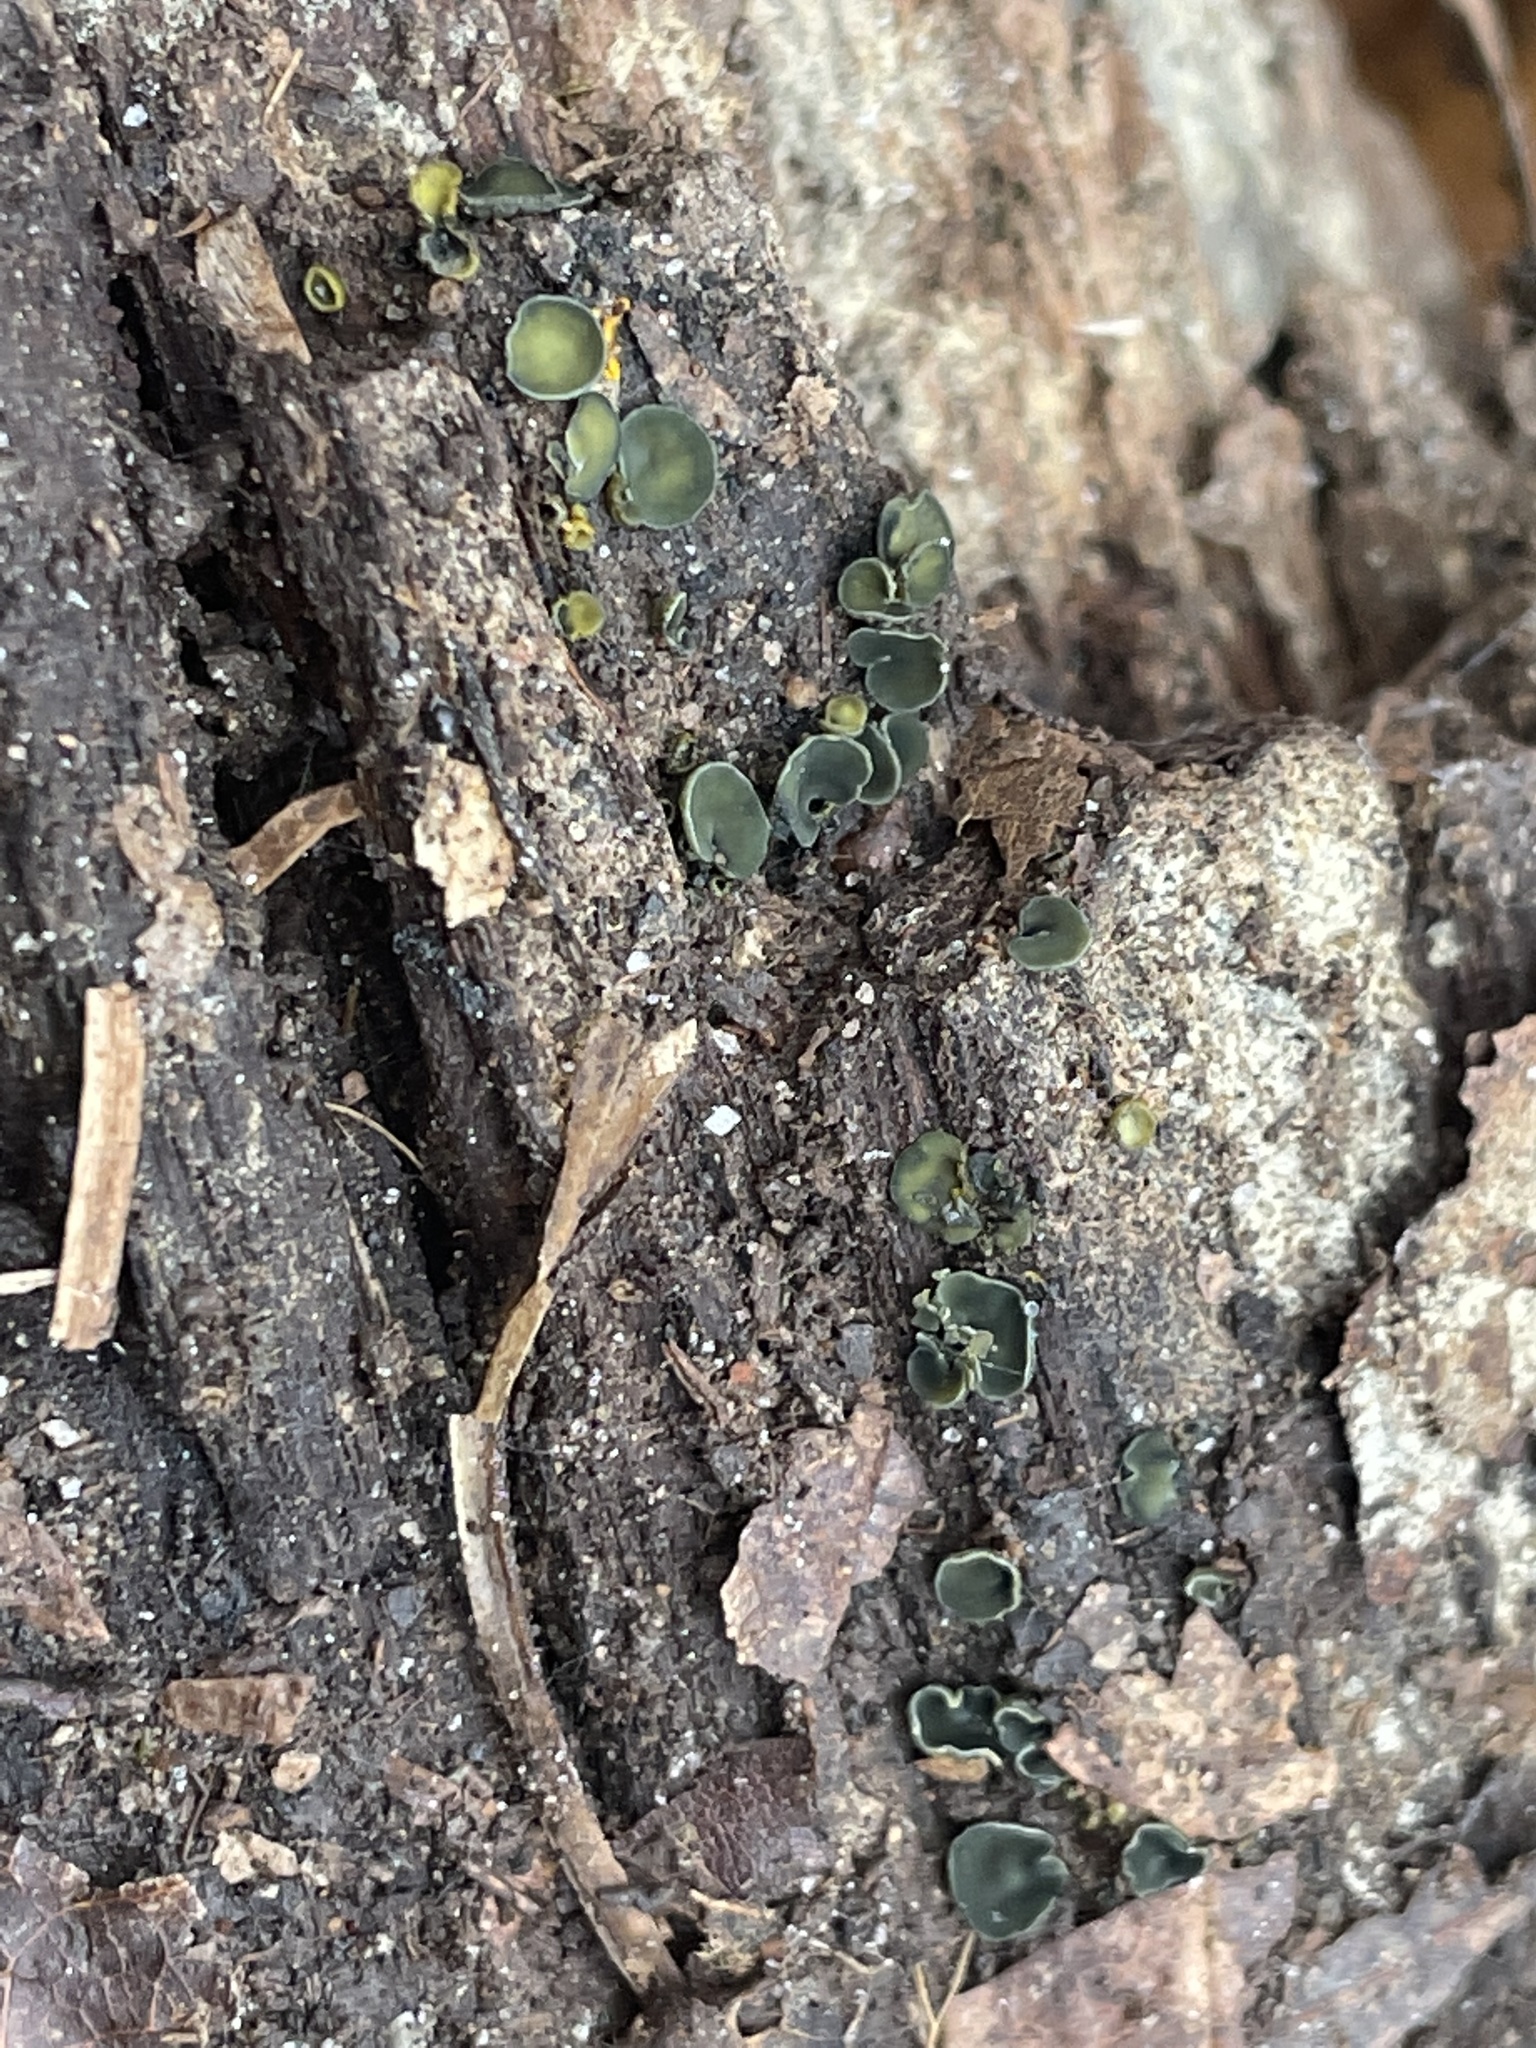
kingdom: Fungi
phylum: Ascomycota
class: Leotiomycetes
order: Helotiales
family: Chlorospleniaceae
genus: Chlorosplenium
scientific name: Chlorosplenium chlora
